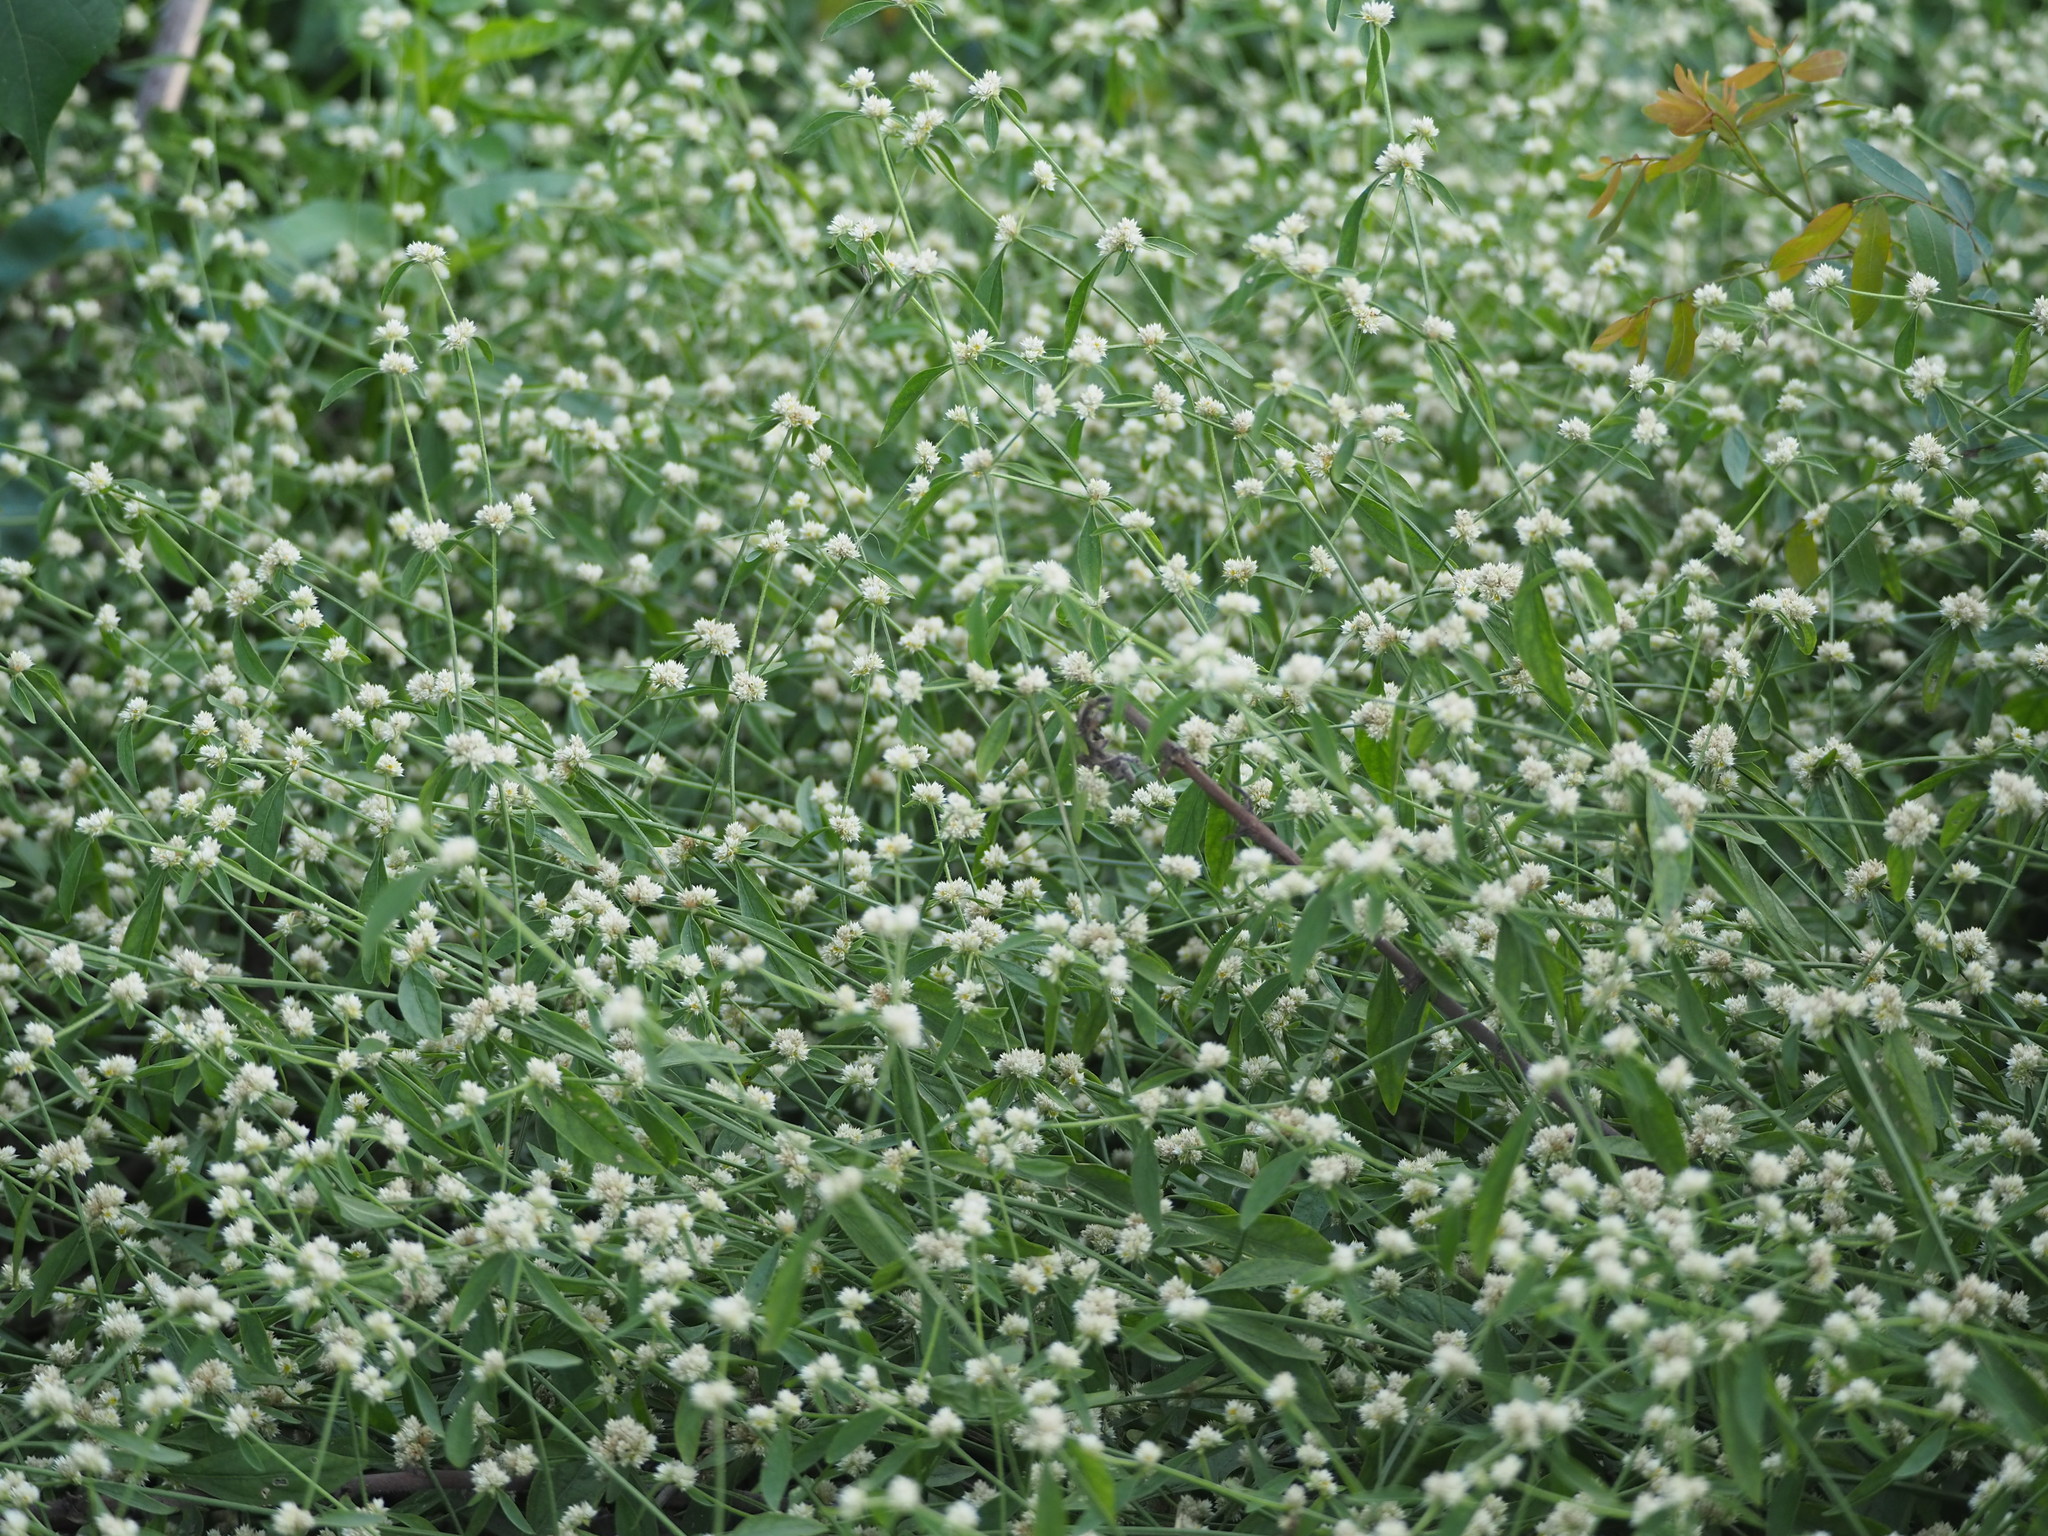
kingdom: Plantae
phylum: Tracheophyta
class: Magnoliopsida
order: Caryophyllales
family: Amaranthaceae
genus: Alternanthera
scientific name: Alternanthera ficoidea
